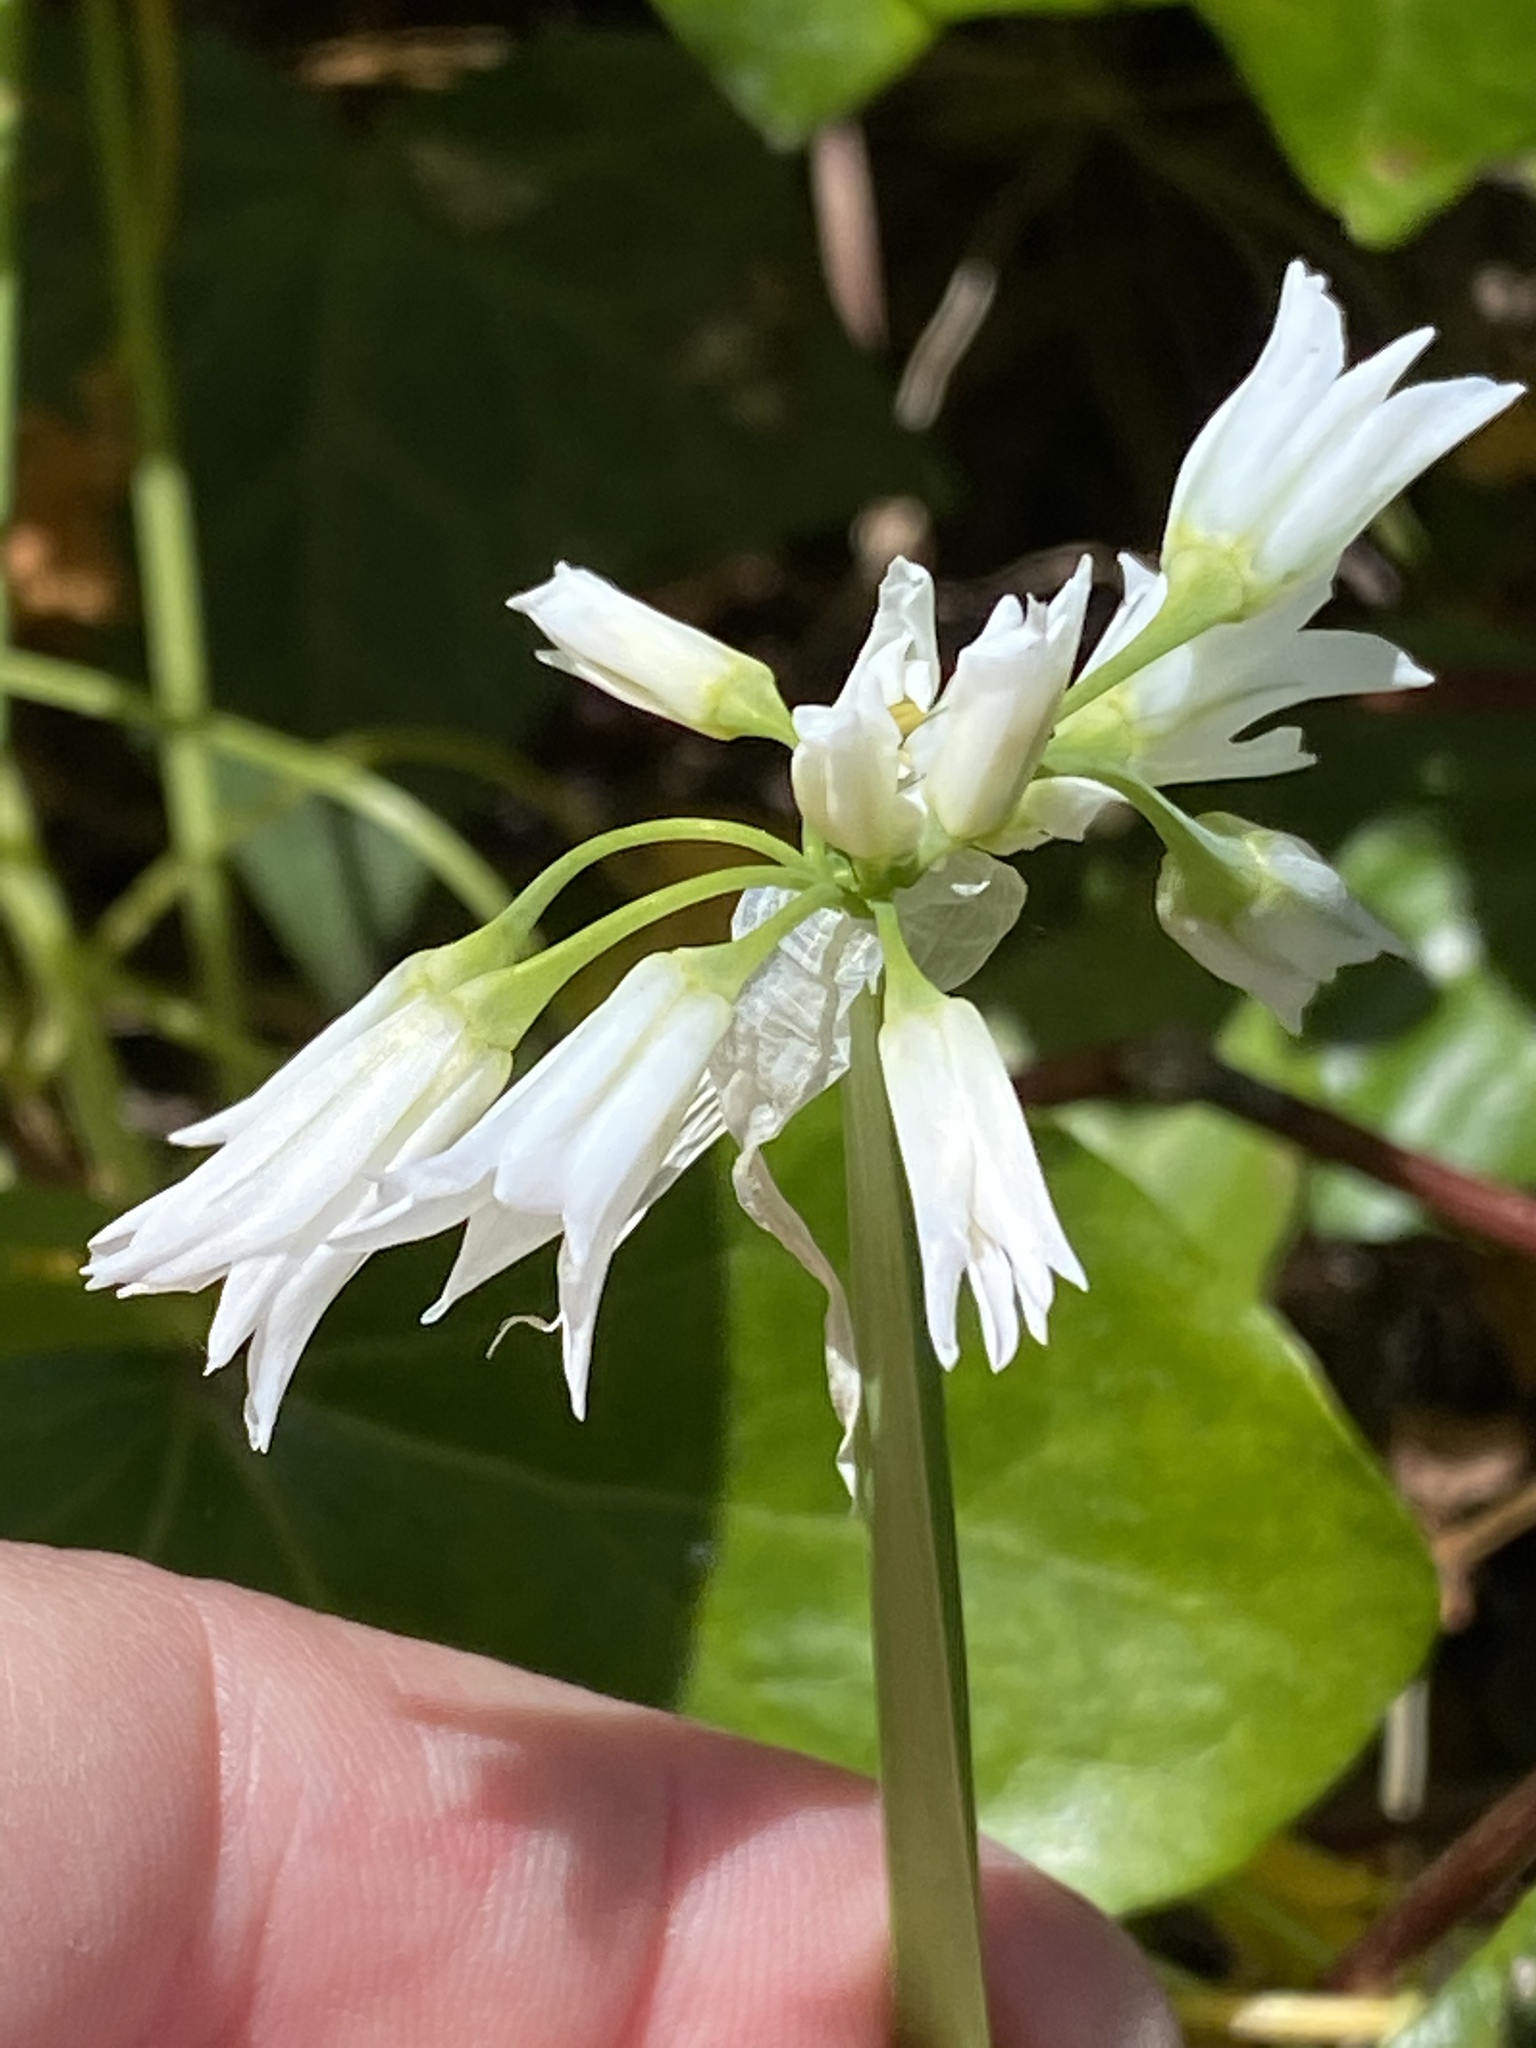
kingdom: Plantae
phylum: Tracheophyta
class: Liliopsida
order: Asparagales
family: Amaryllidaceae
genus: Allium
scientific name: Allium triquetrum
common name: Three-cornered garlic
